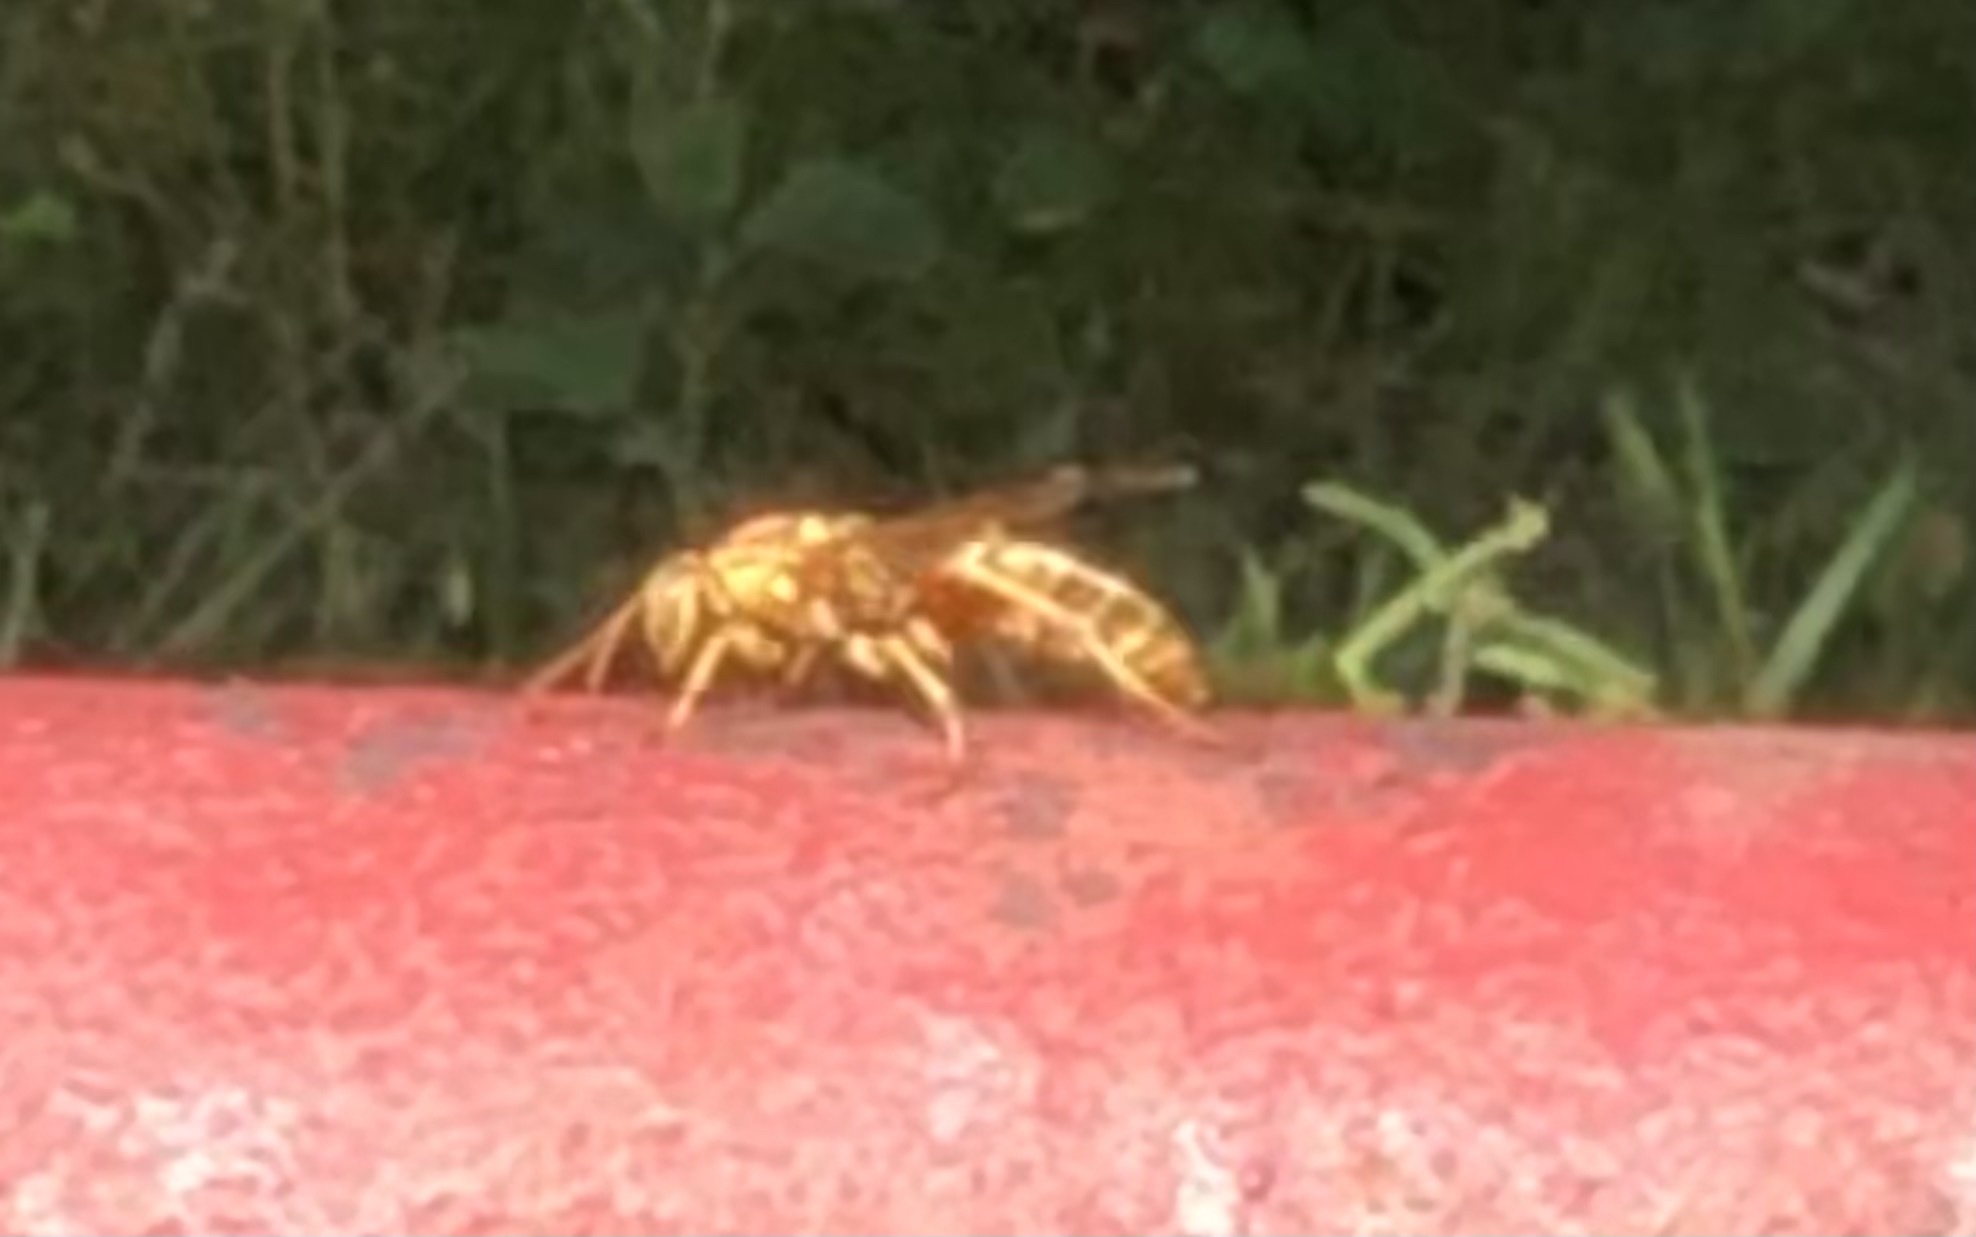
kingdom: Animalia
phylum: Arthropoda
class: Insecta
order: Hymenoptera
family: Eumenidae
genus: Polistes
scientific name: Polistes apachus
